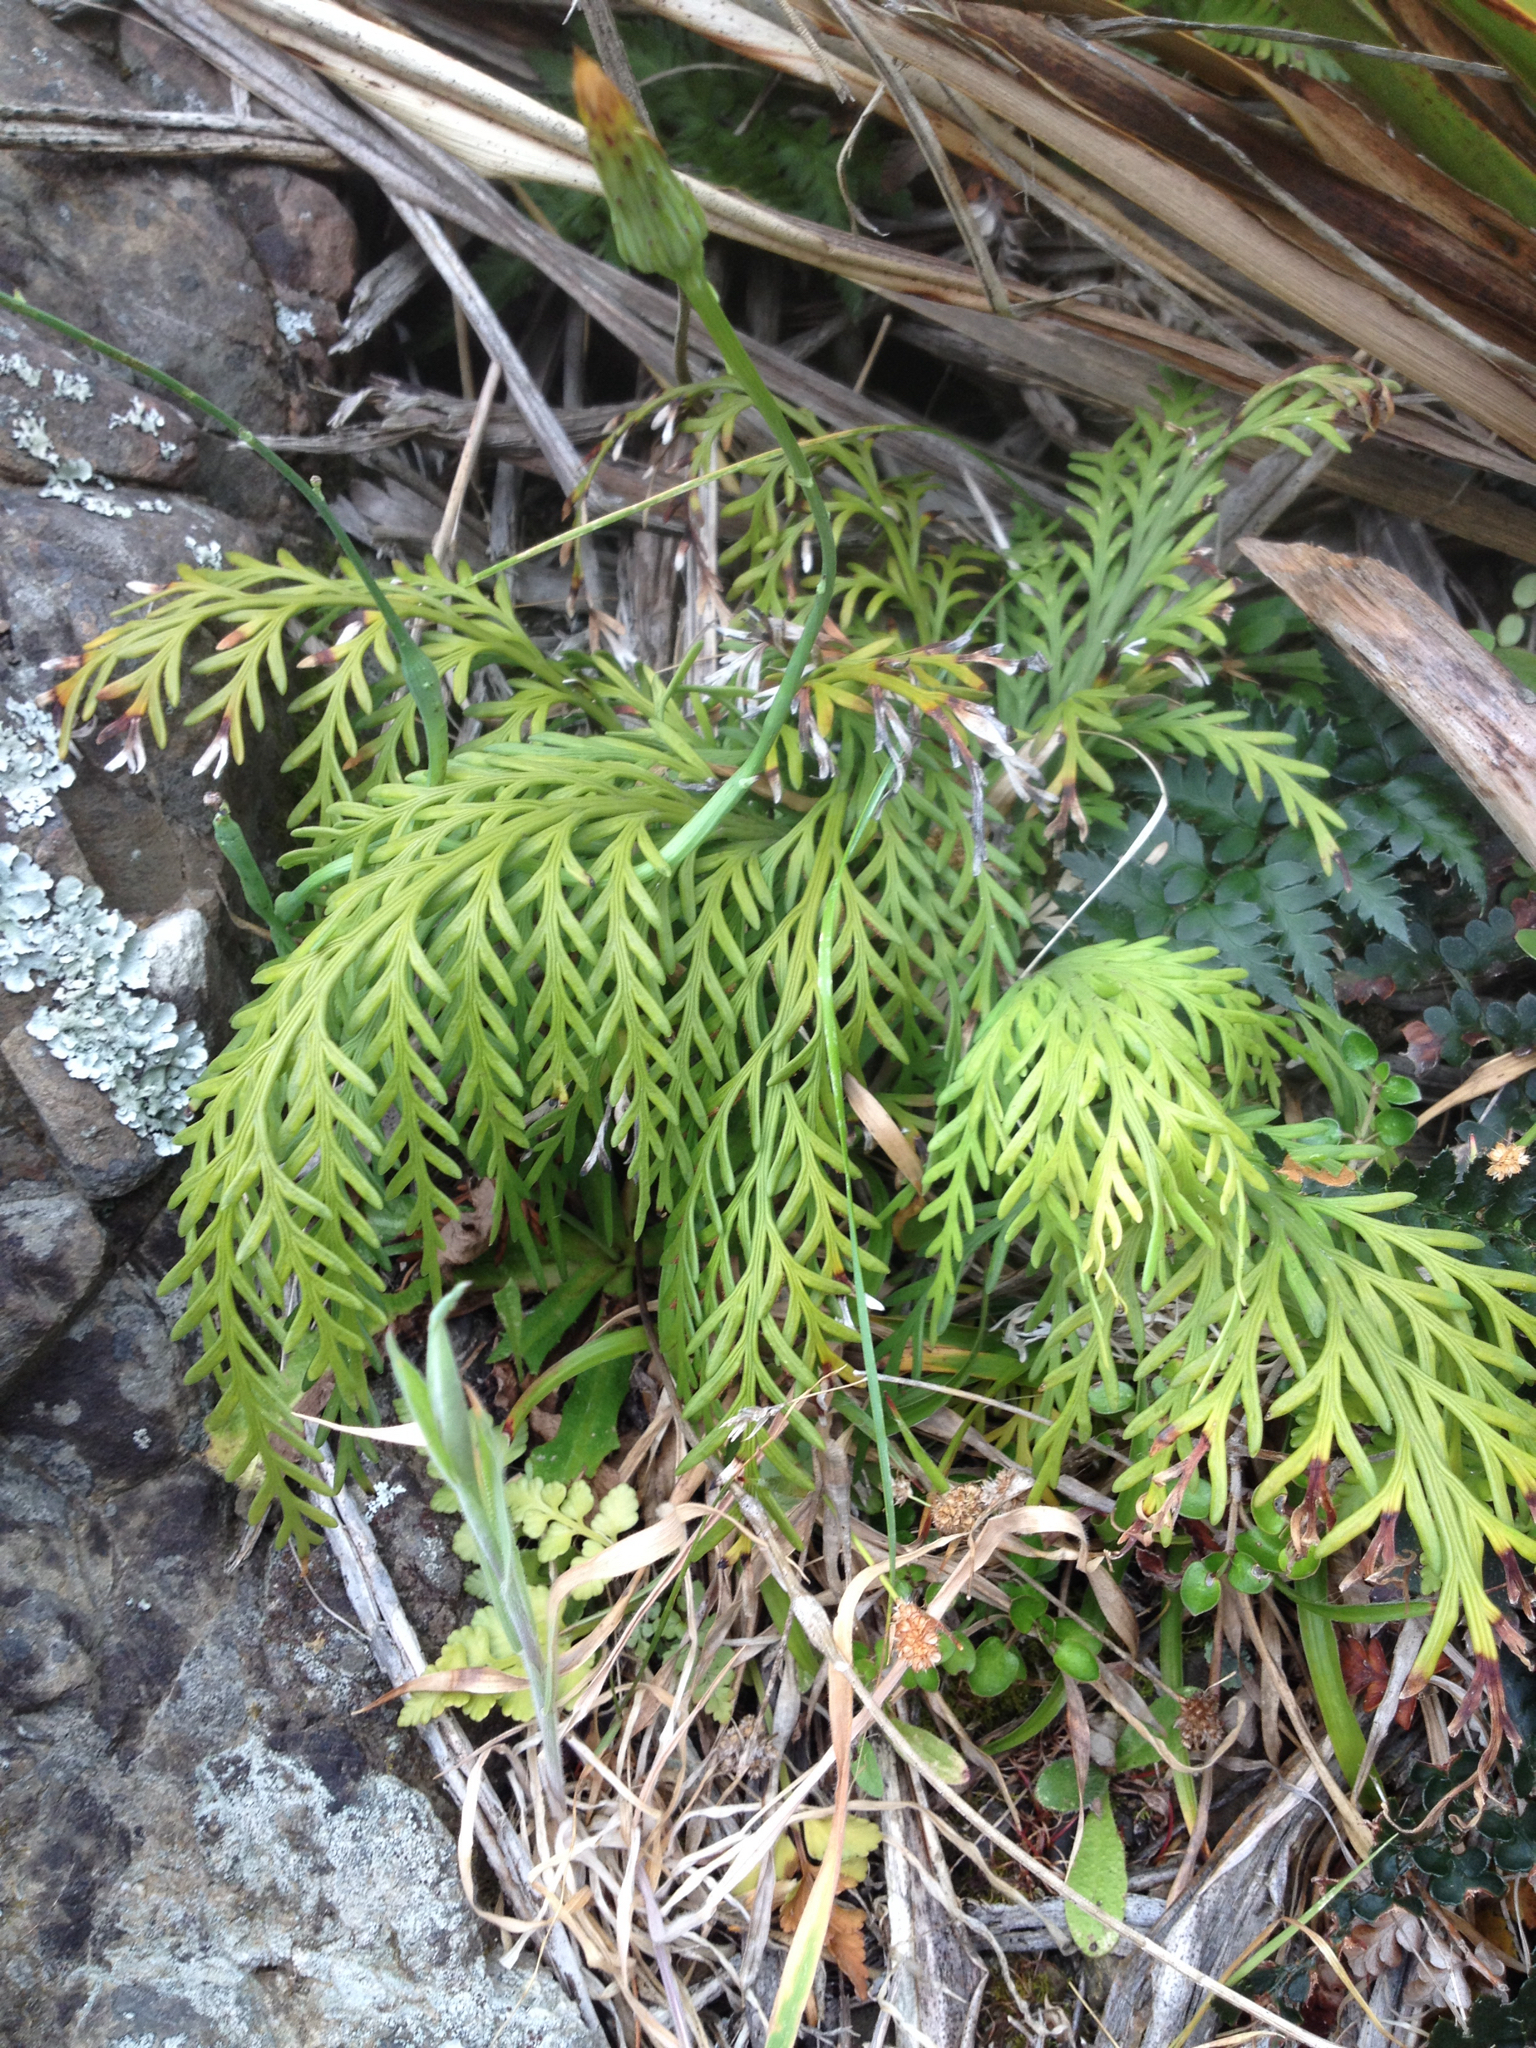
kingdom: Plantae
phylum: Tracheophyta
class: Polypodiopsida
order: Polypodiales
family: Aspleniaceae
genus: Asplenium
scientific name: Asplenium flaccidum
